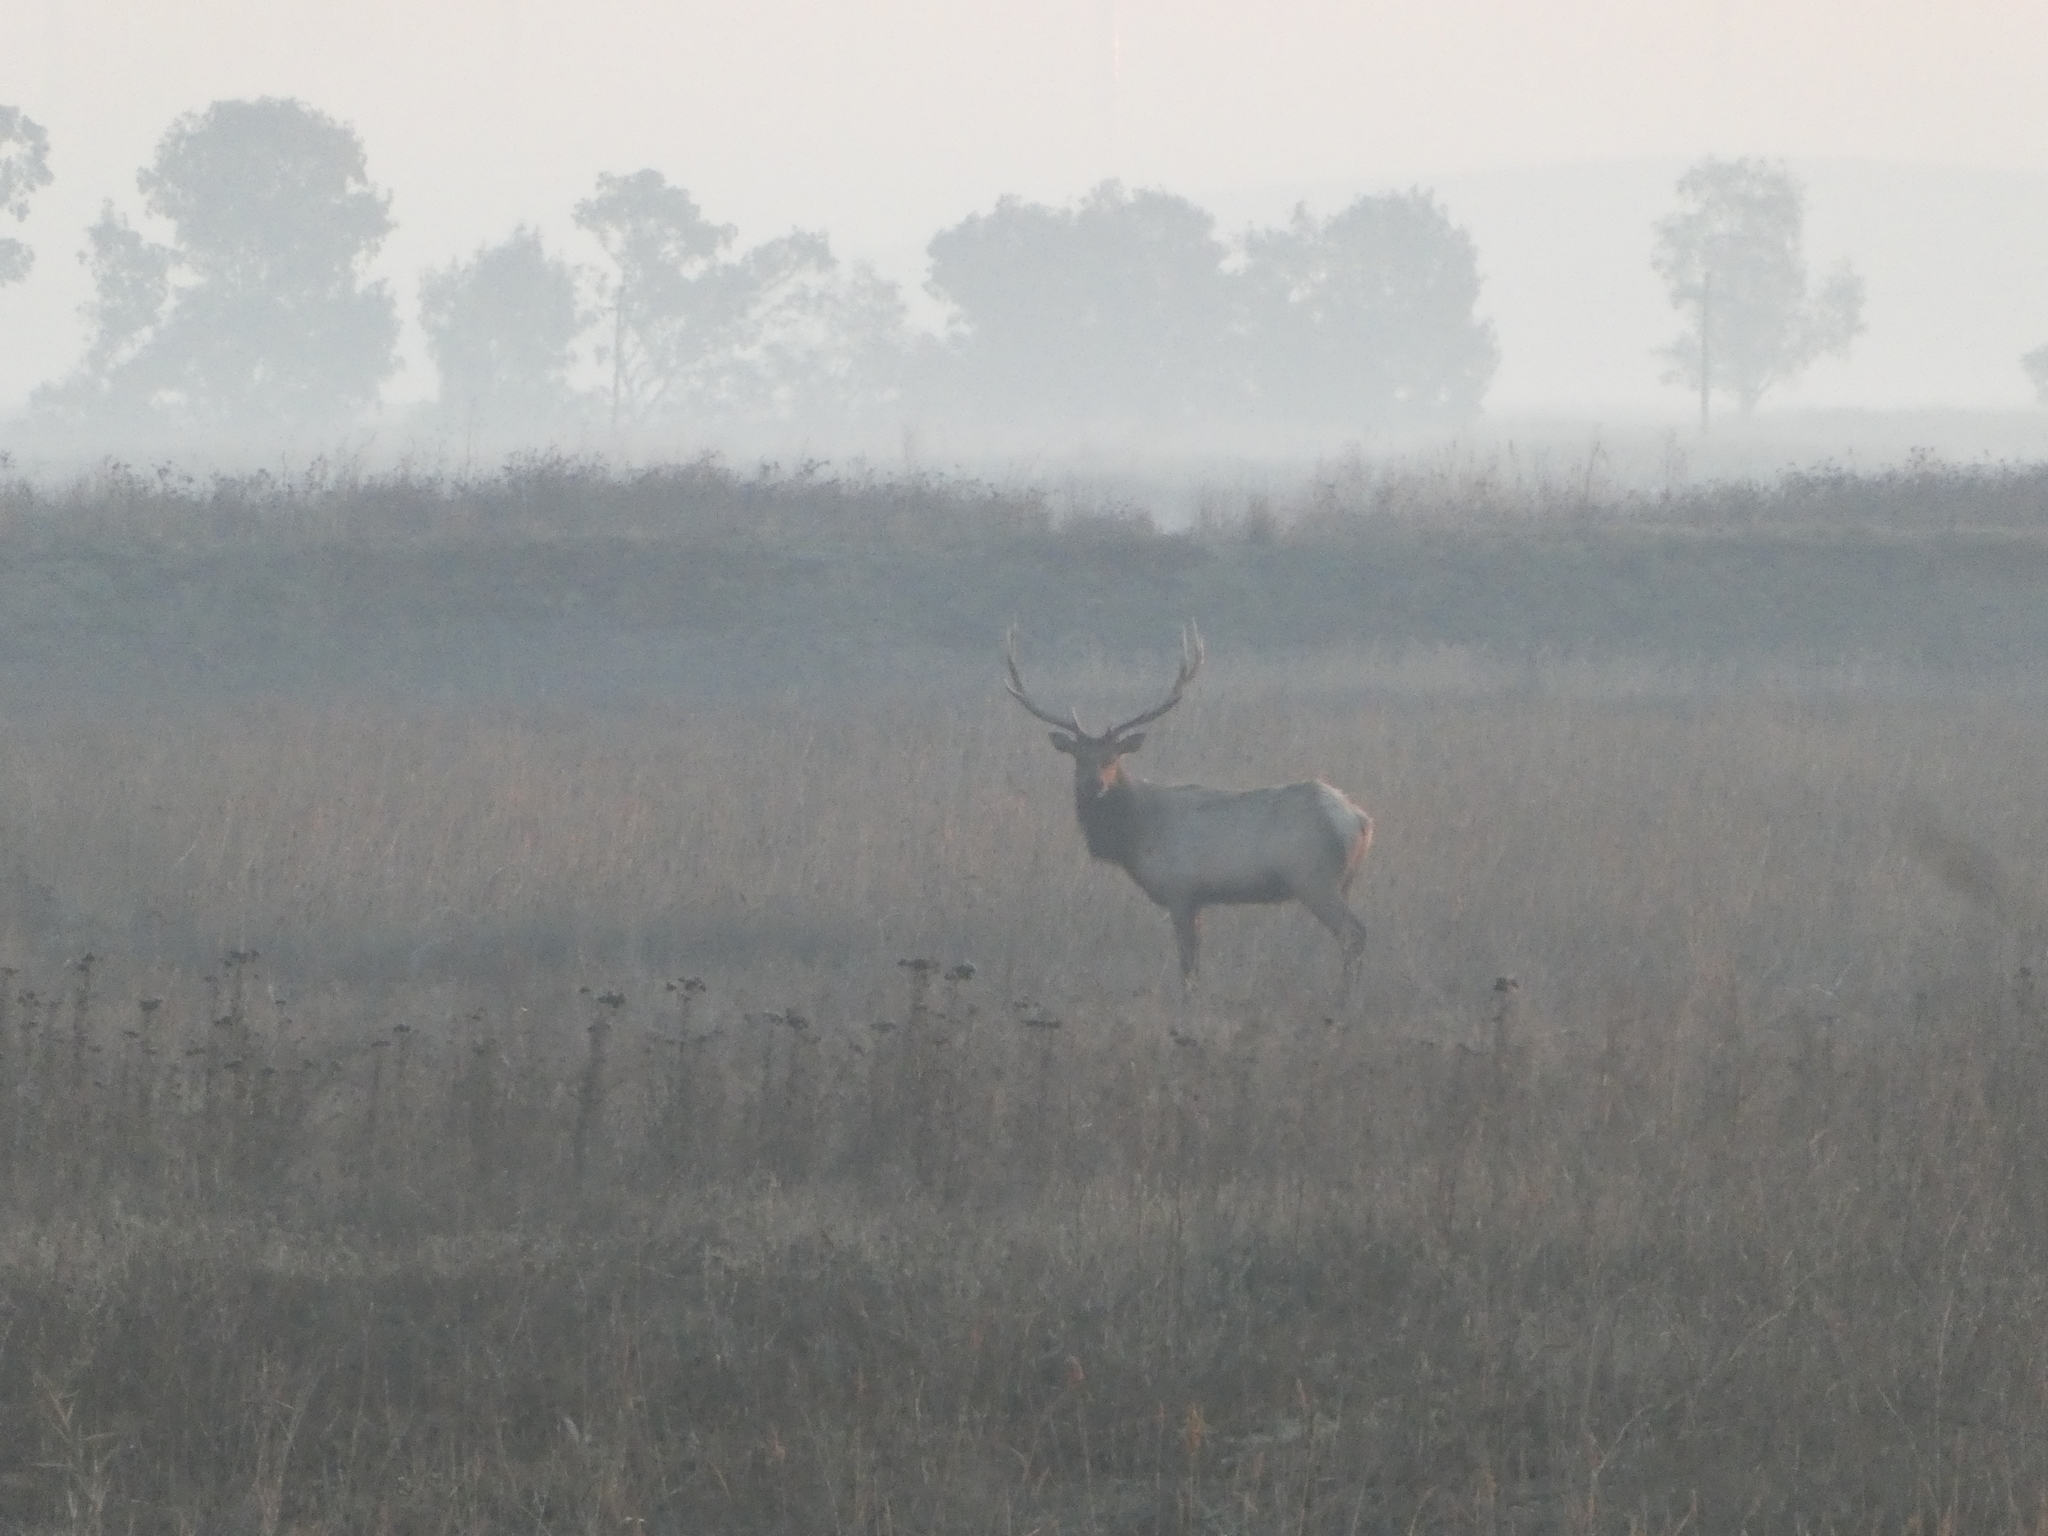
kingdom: Animalia
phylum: Chordata
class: Mammalia
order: Artiodactyla
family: Cervidae
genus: Cervus
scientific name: Cervus elaphus
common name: Red deer
